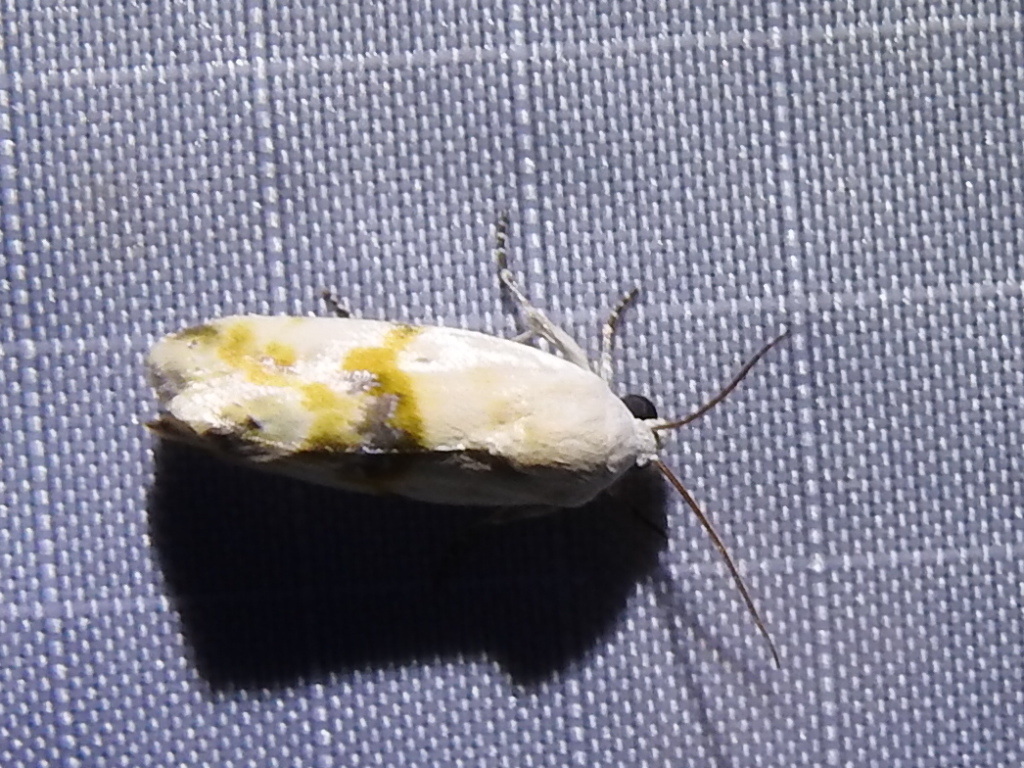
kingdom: Animalia
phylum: Arthropoda
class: Insecta
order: Lepidoptera
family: Noctuidae
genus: Acontia
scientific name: Acontia candefacta
